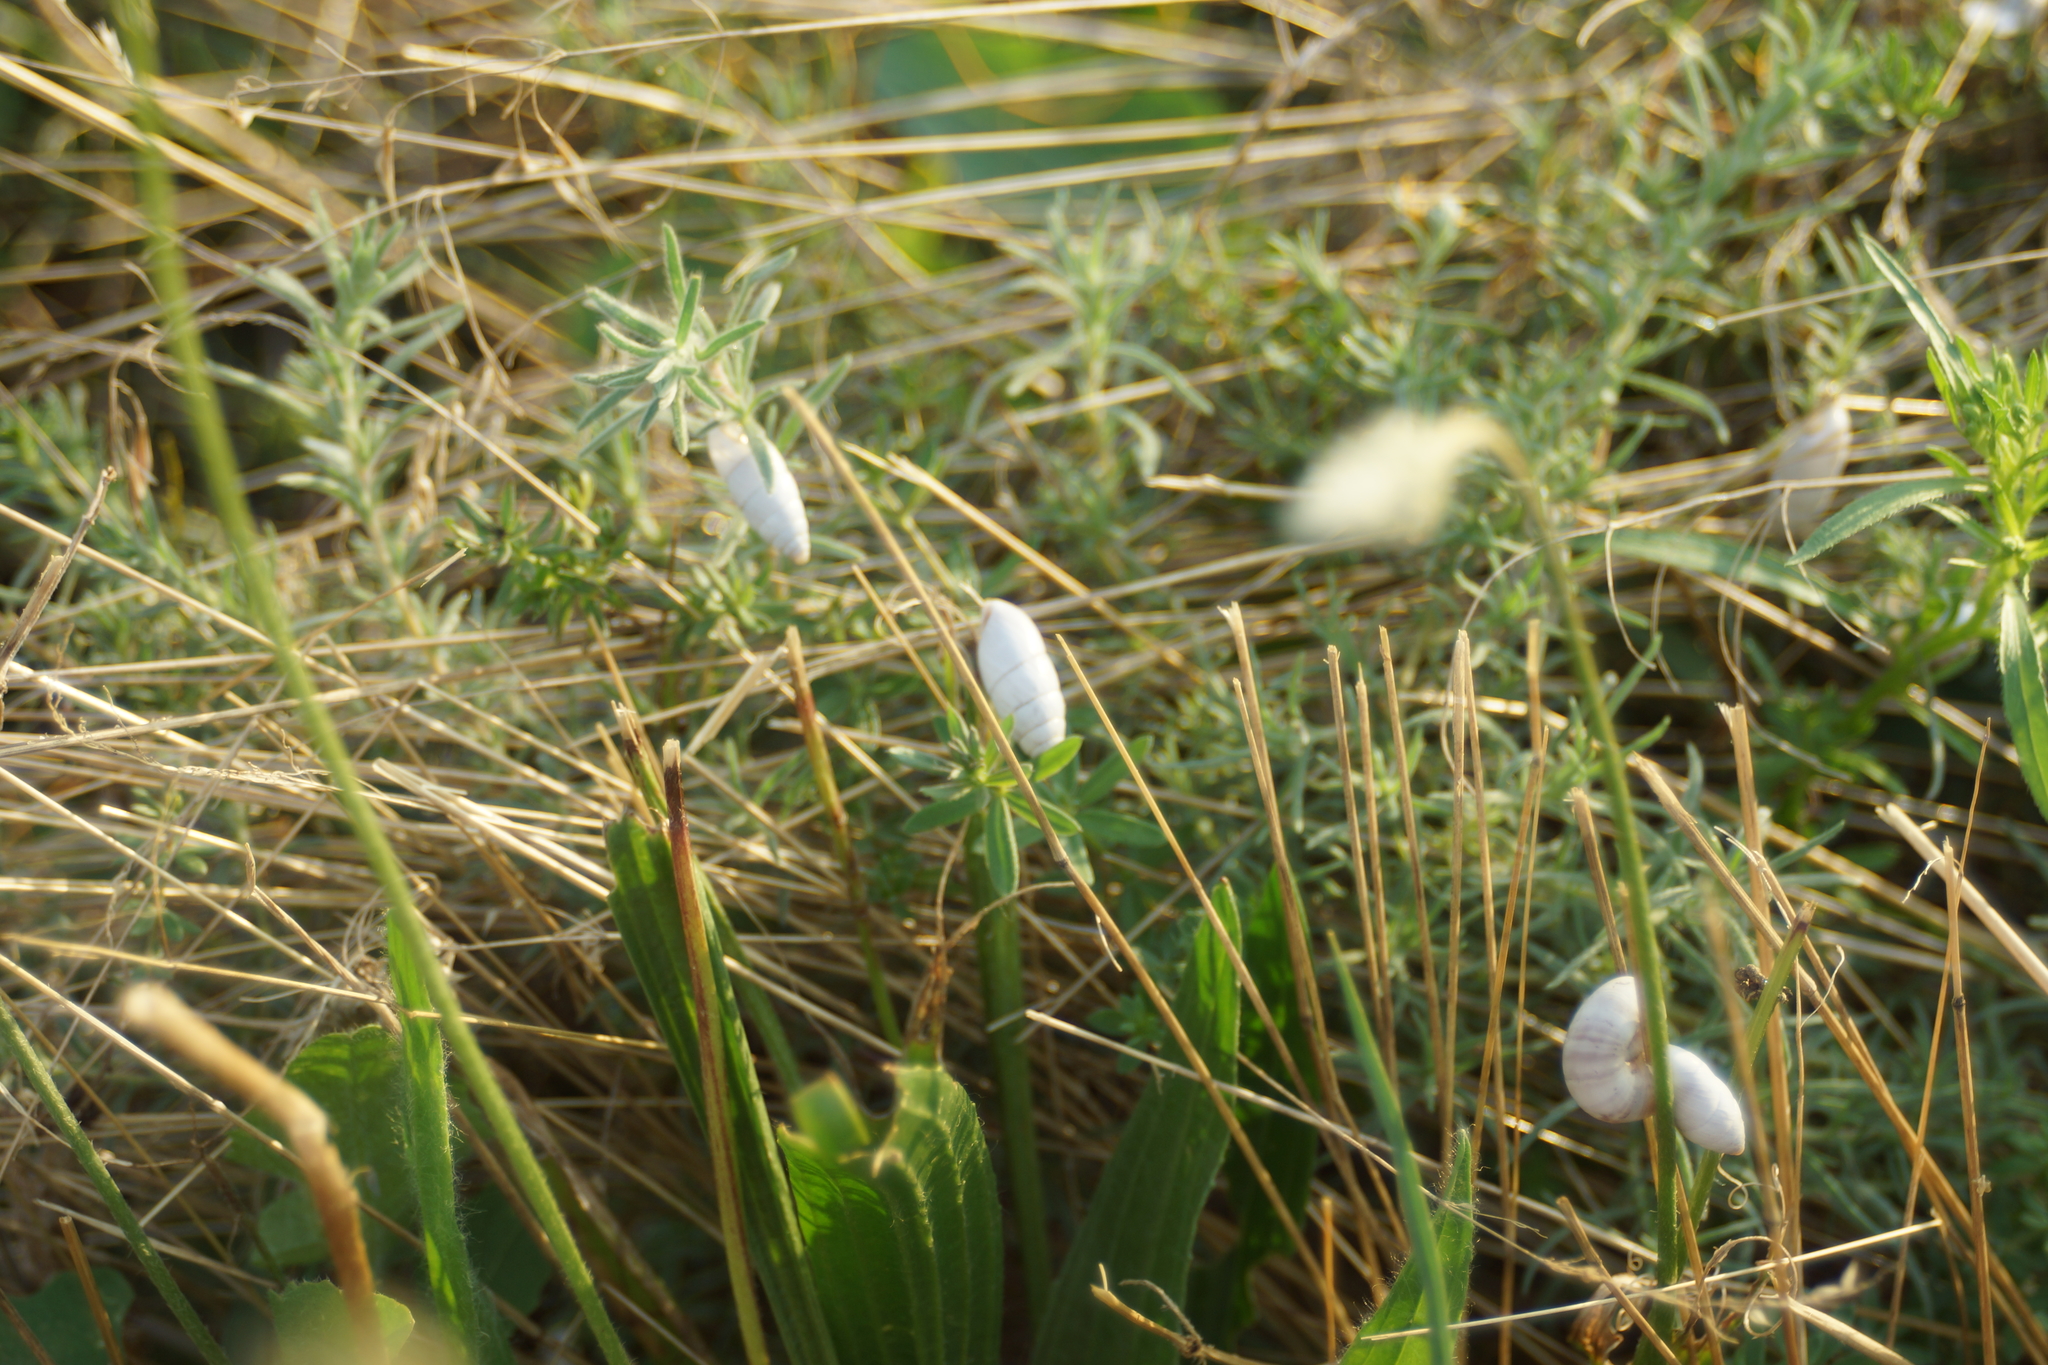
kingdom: Animalia
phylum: Mollusca
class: Gastropoda
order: Stylommatophora
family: Enidae
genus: Brephulopsis
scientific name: Brephulopsis cylindrica
